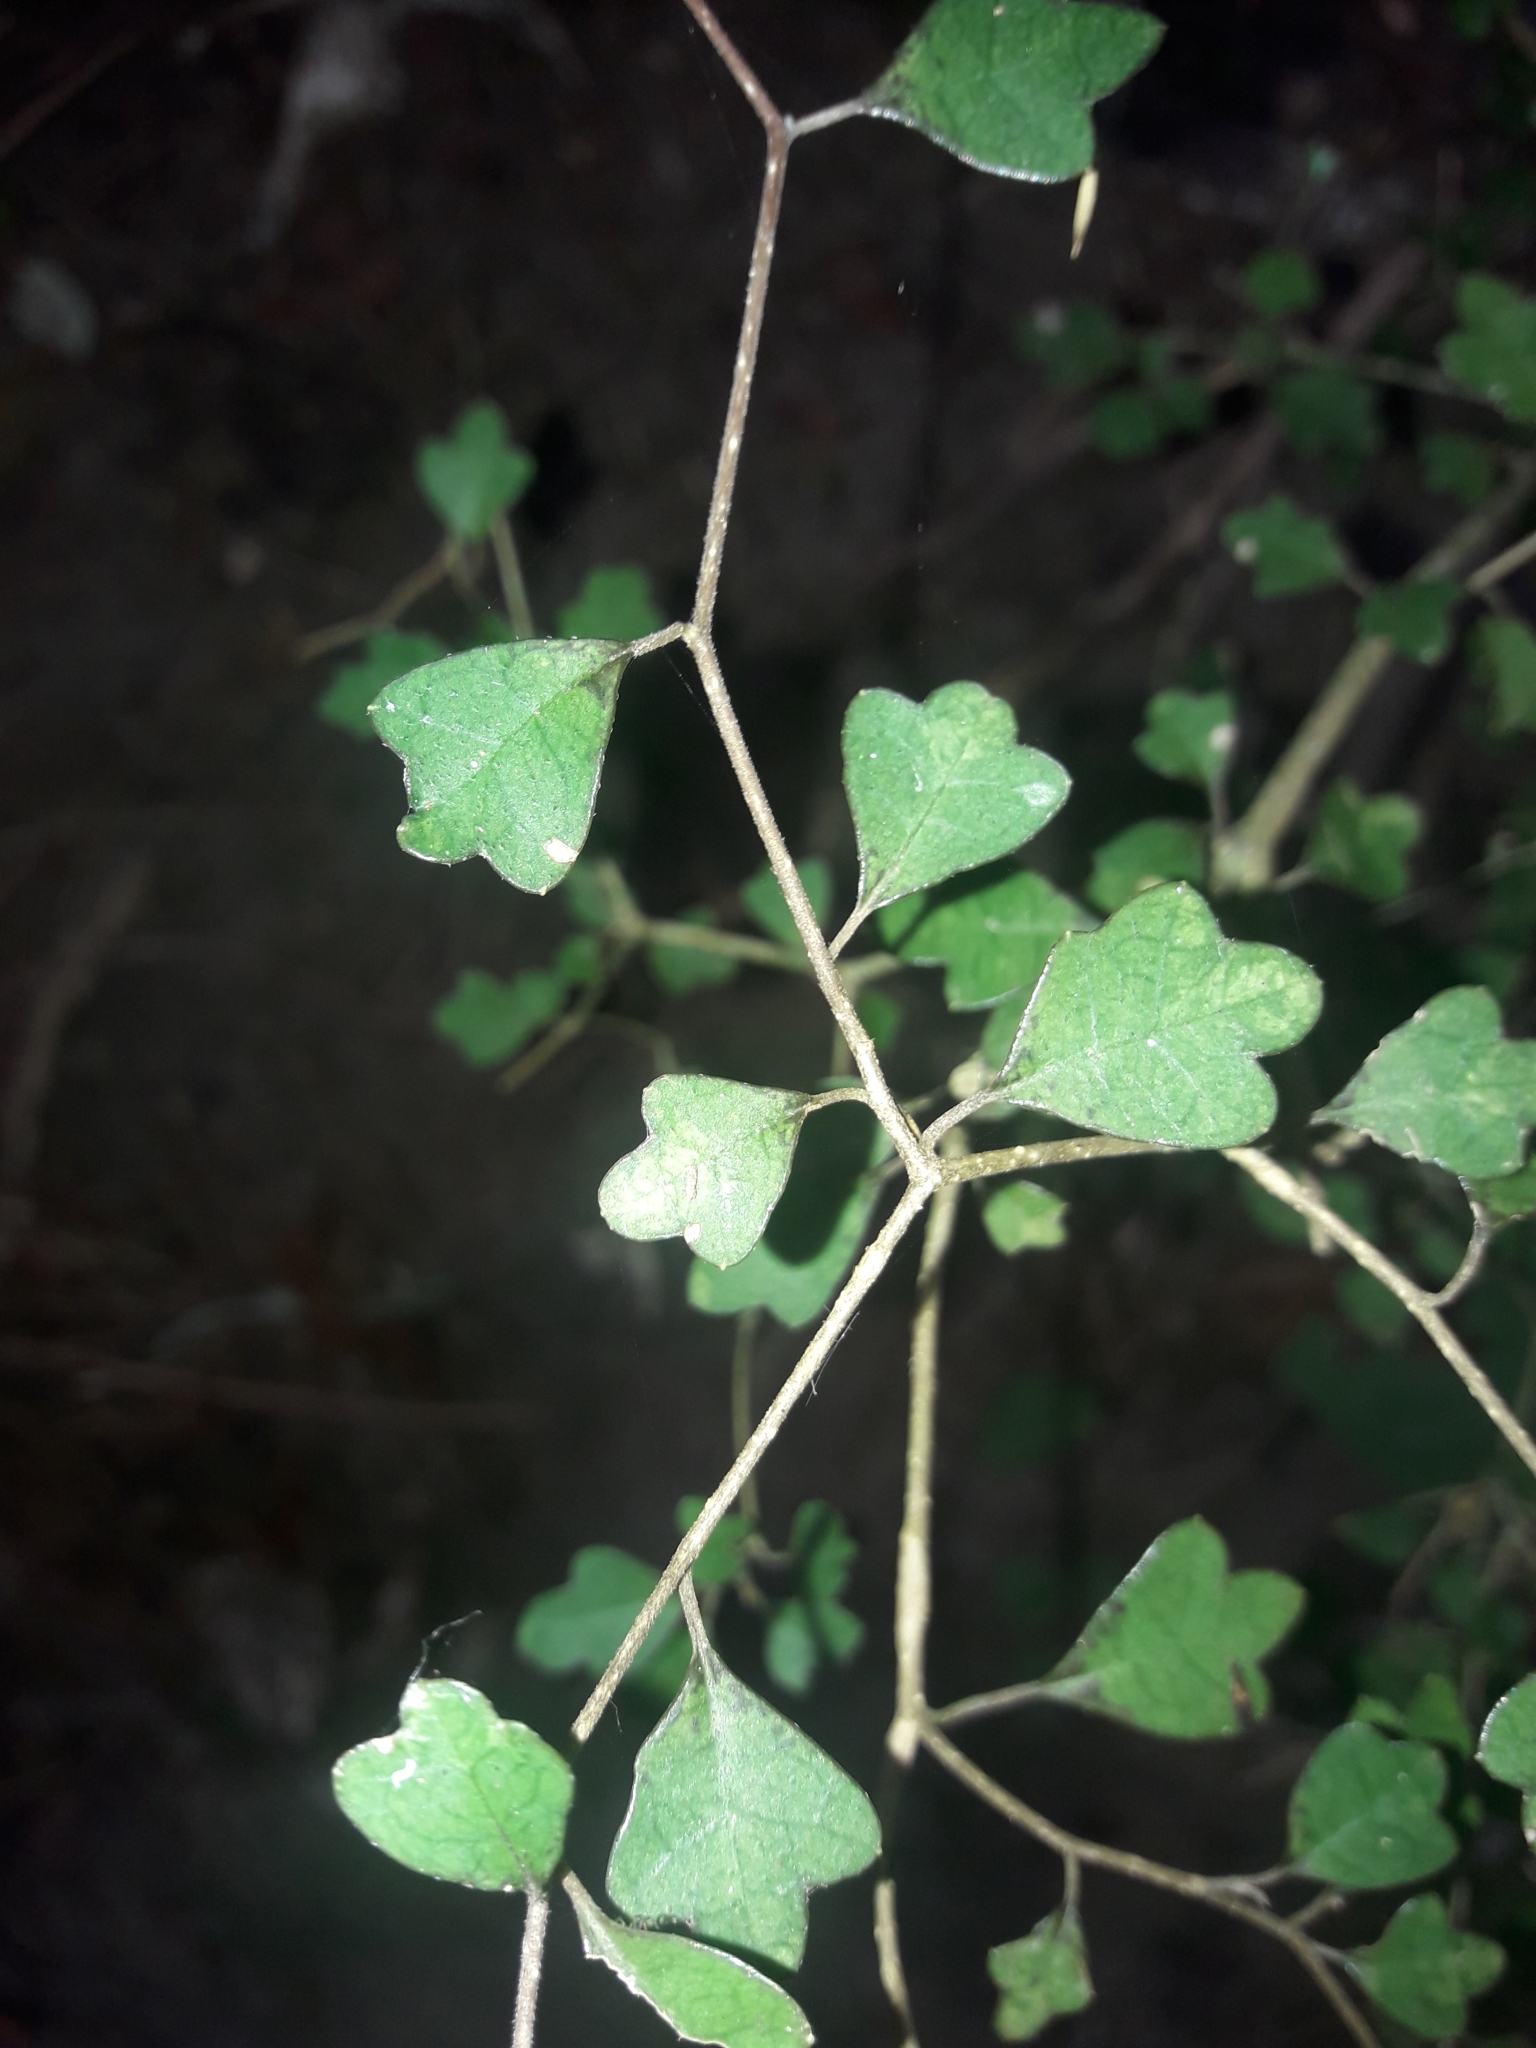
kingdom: Plantae
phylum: Tracheophyta
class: Magnoliopsida
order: Apiales
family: Pennantiaceae
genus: Pennantia
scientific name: Pennantia corymbosa
